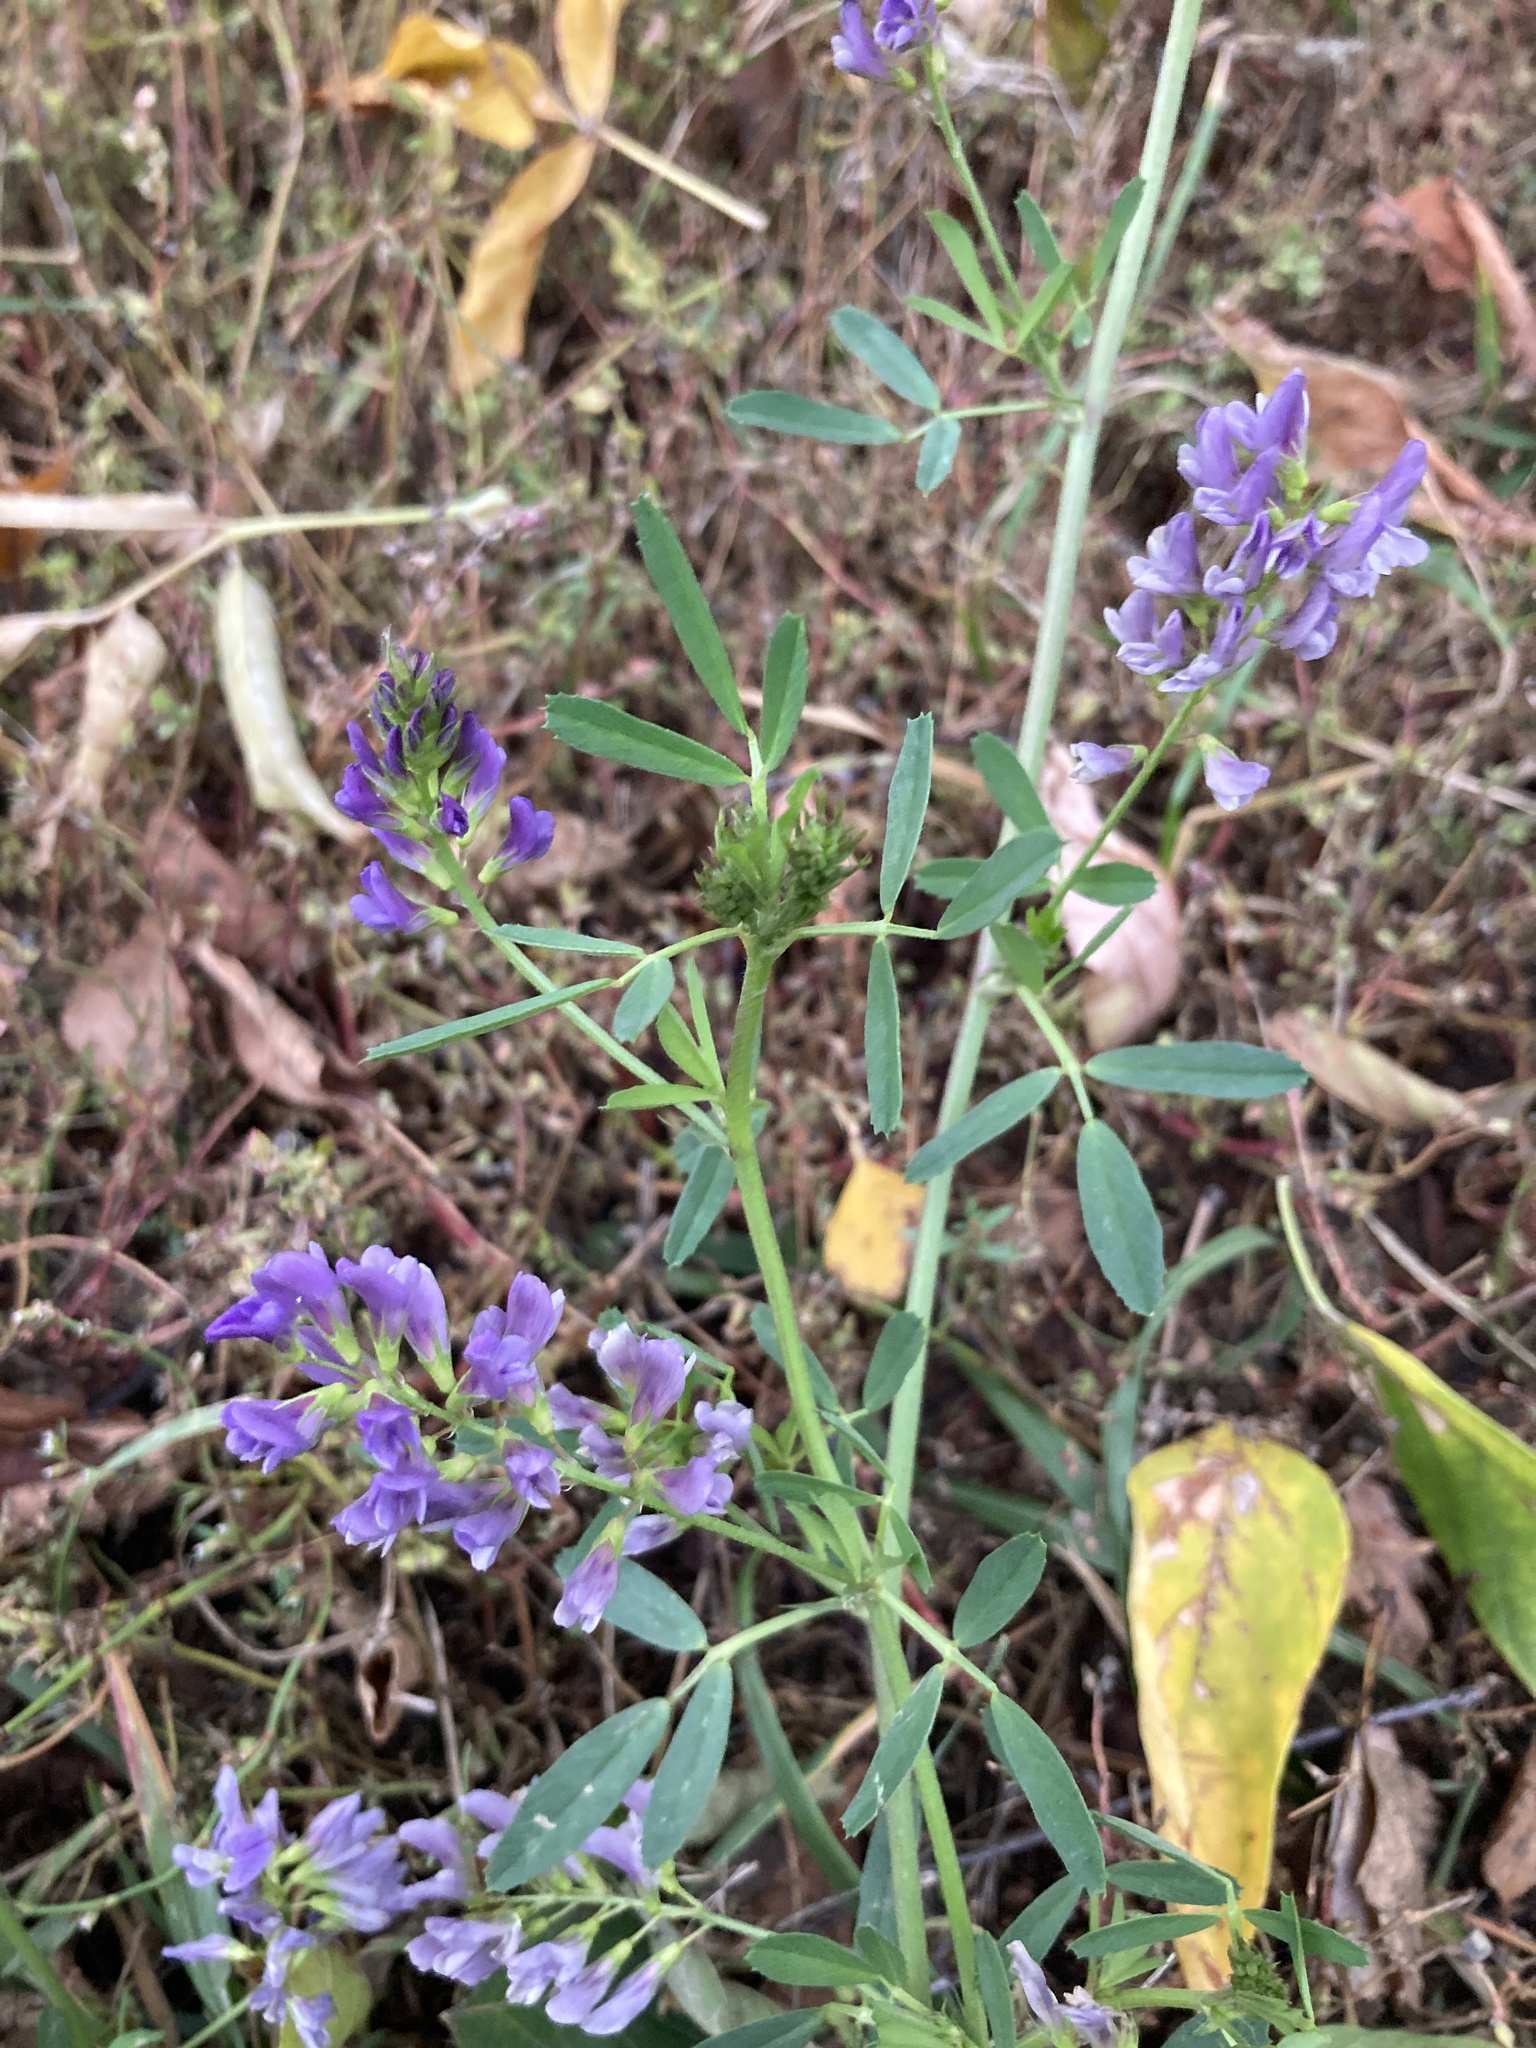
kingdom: Plantae
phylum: Tracheophyta
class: Magnoliopsida
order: Fabales
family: Fabaceae
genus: Medicago
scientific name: Medicago sativa
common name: Alfalfa
